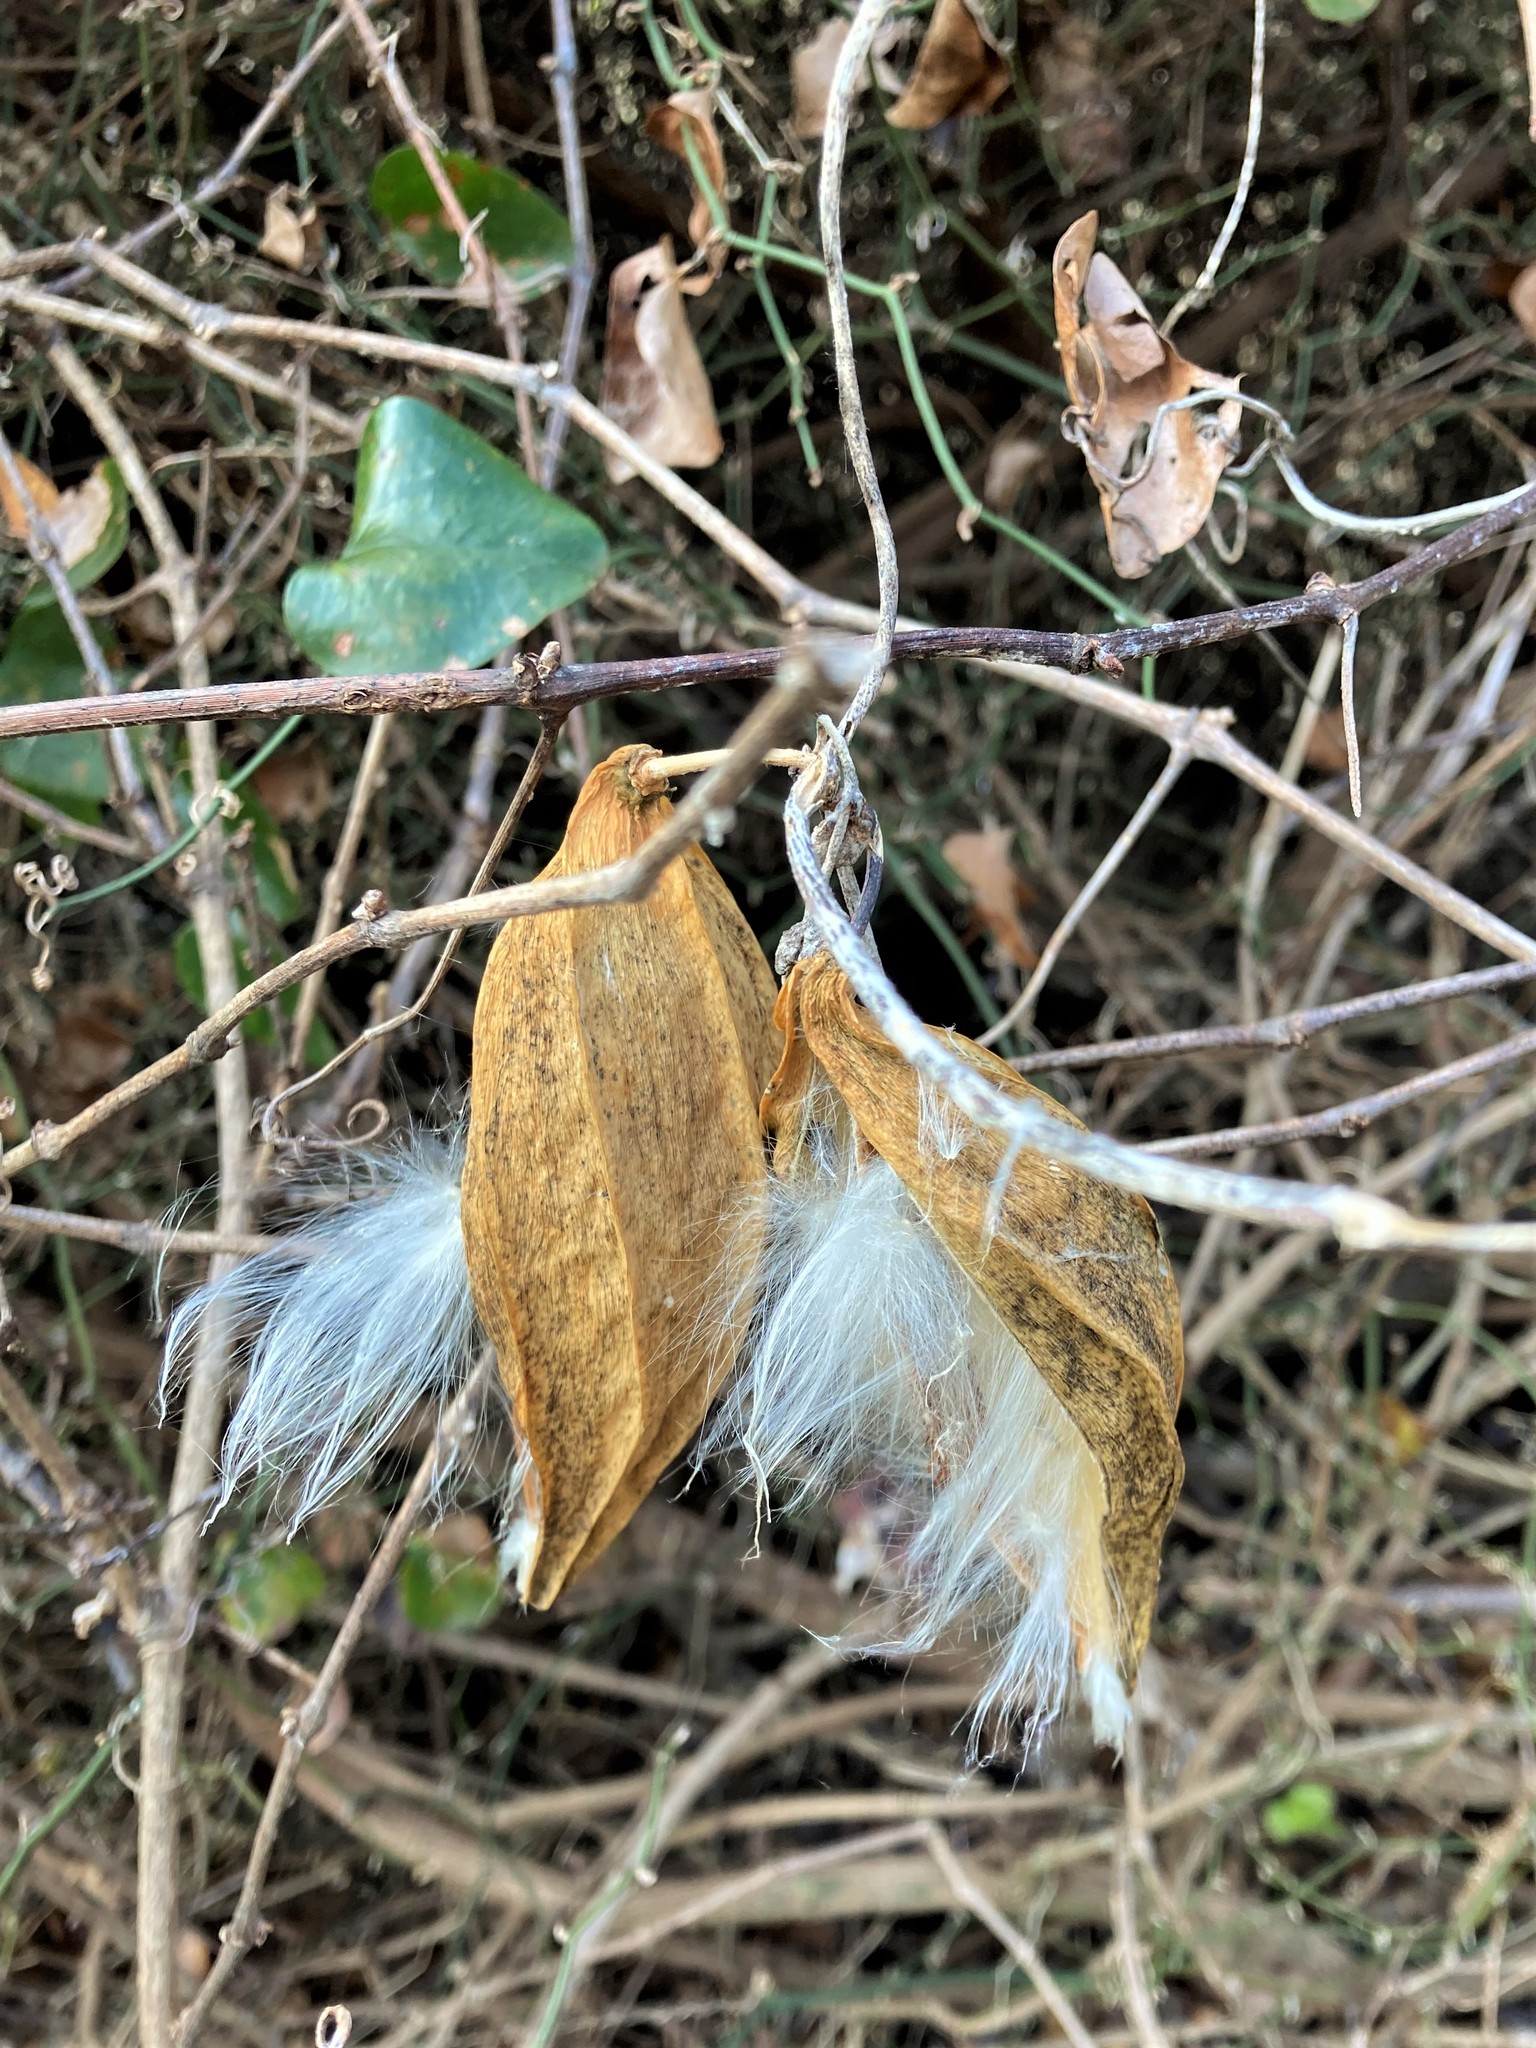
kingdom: Plantae
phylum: Tracheophyta
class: Magnoliopsida
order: Gentianales
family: Apocynaceae
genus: Gonolobus
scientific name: Gonolobus suberosus
